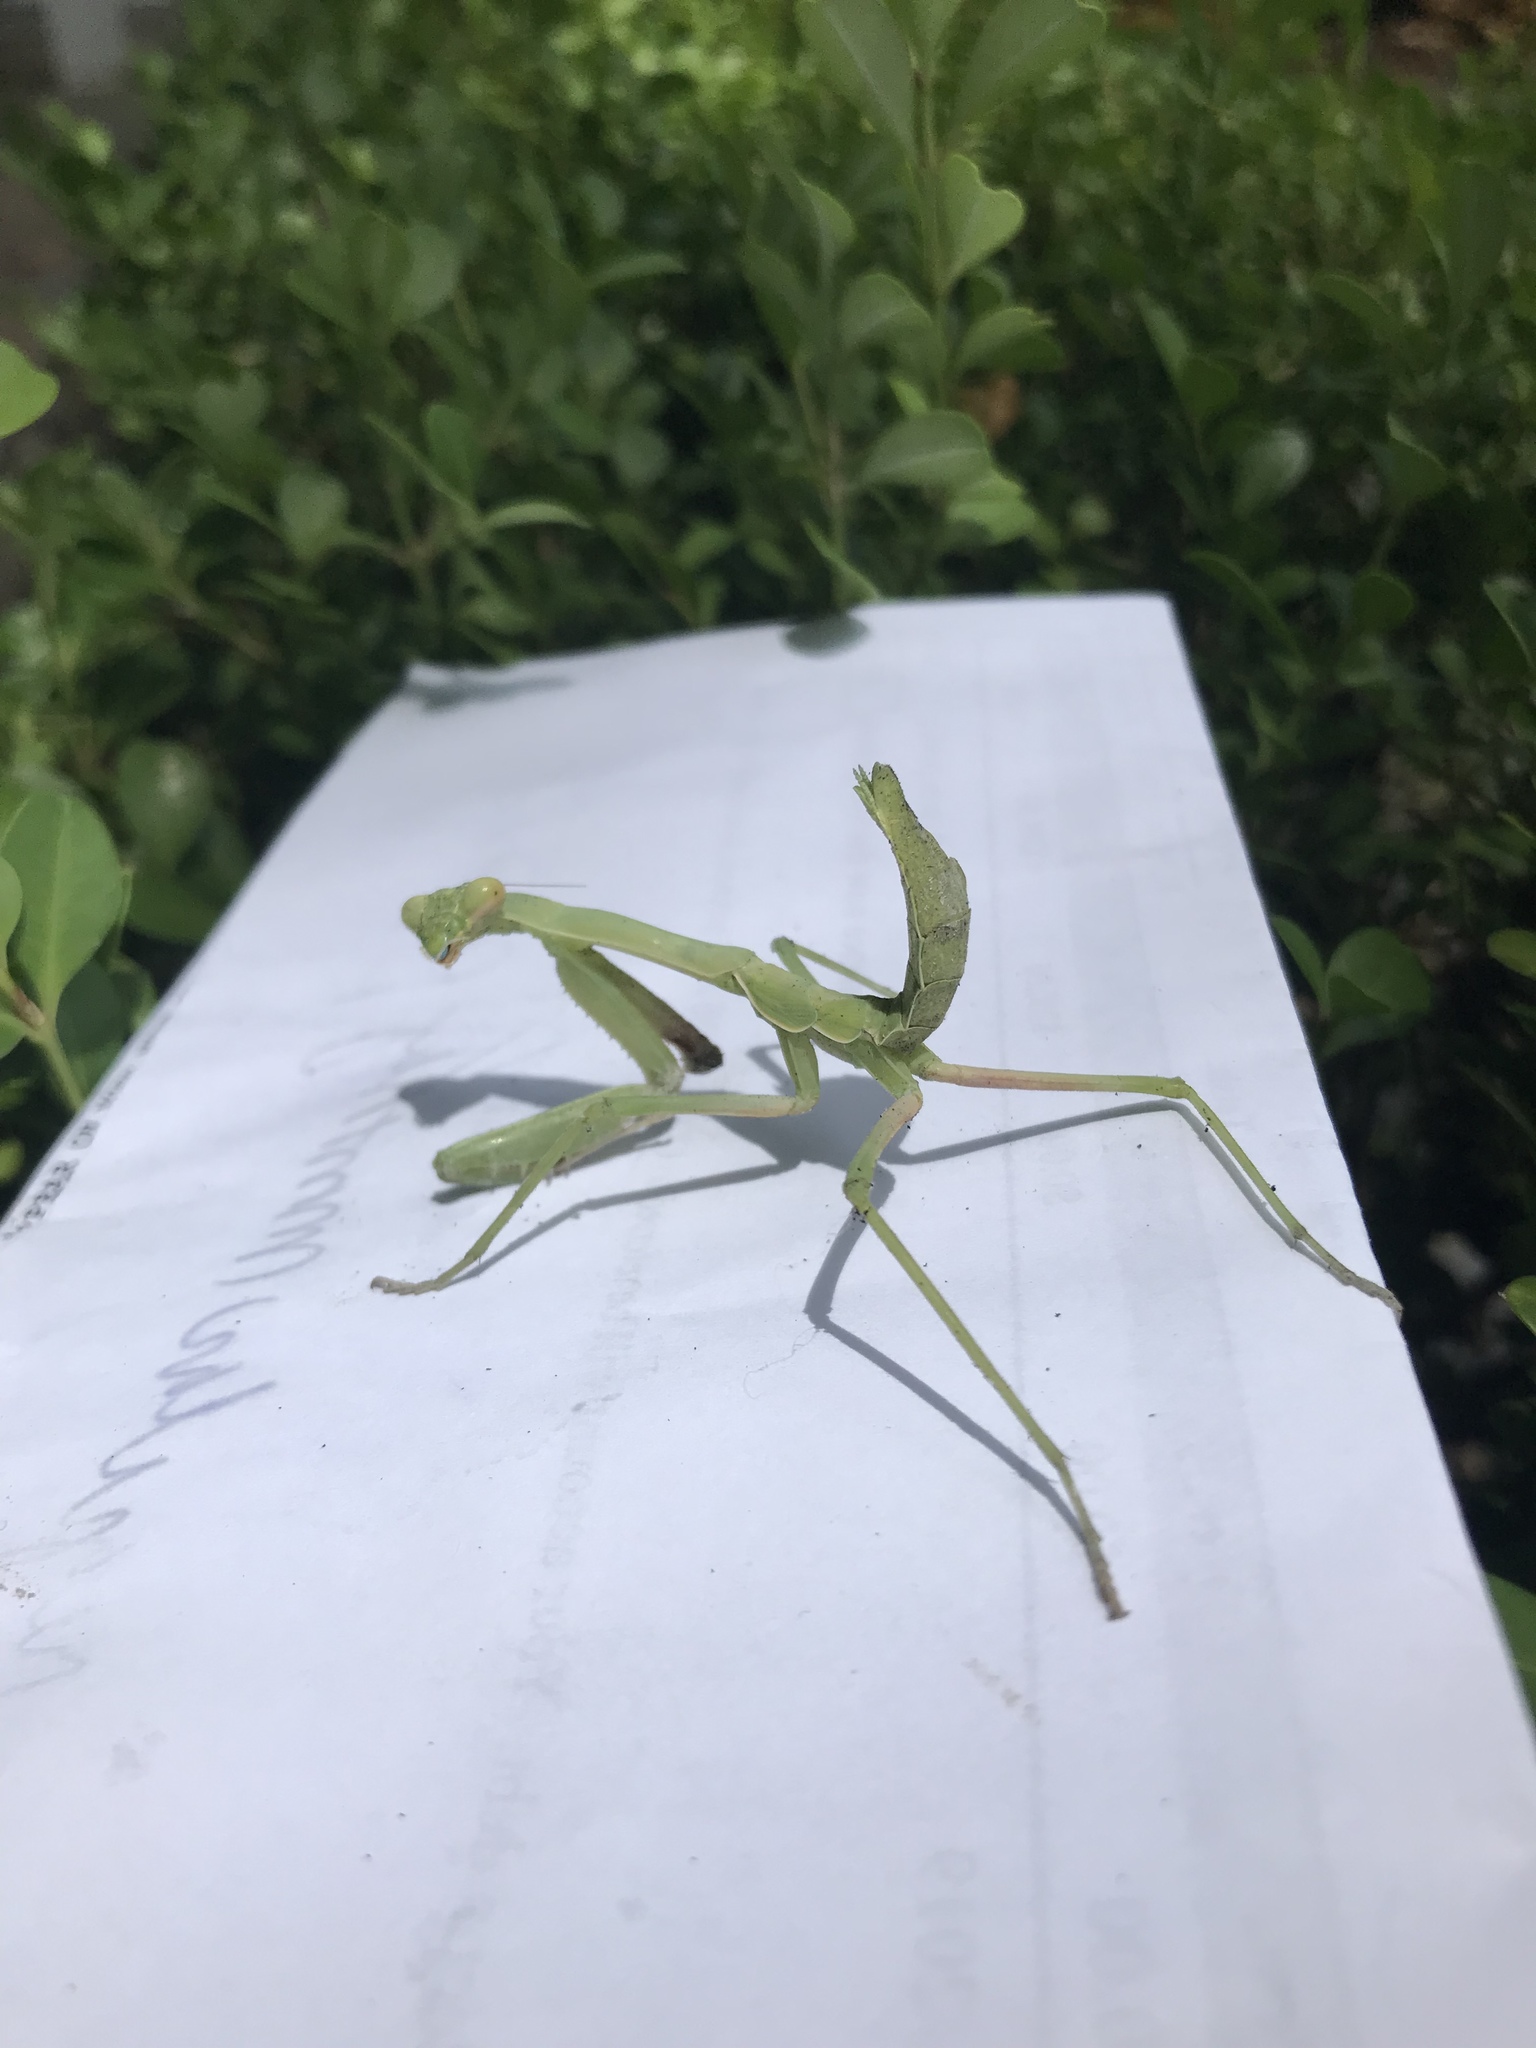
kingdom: Animalia
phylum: Arthropoda
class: Insecta
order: Mantodea
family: Mantidae
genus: Stagmomantis
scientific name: Stagmomantis limbata
